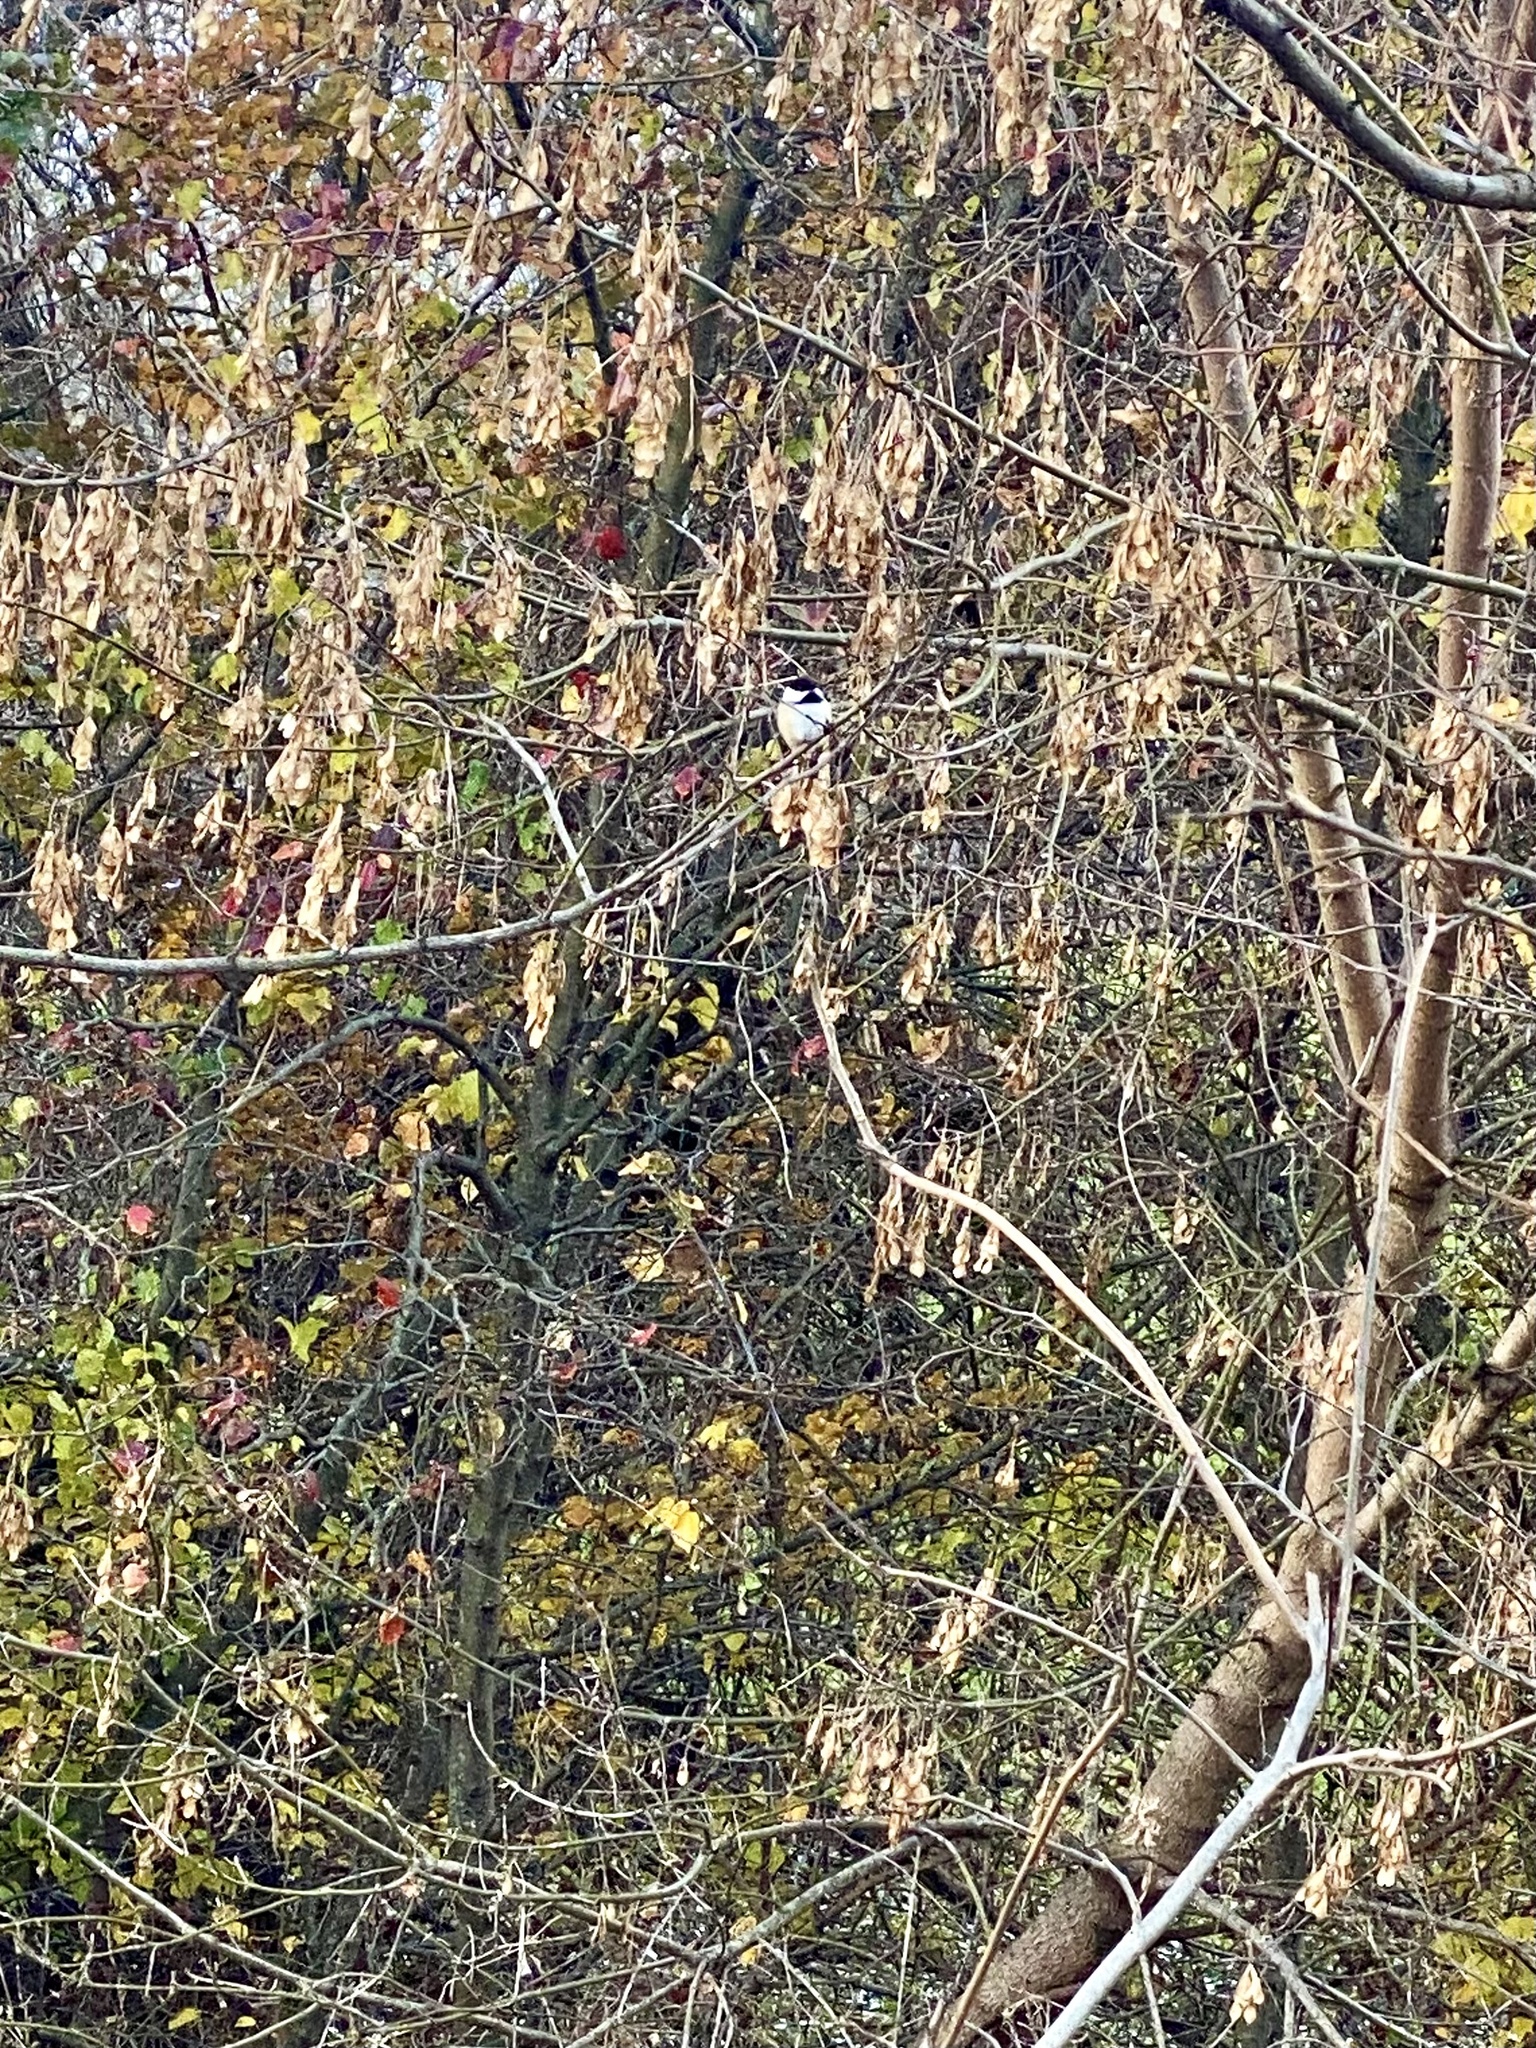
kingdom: Animalia
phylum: Chordata
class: Aves
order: Passeriformes
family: Paridae
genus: Poecile
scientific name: Poecile atricapillus
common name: Black-capped chickadee
